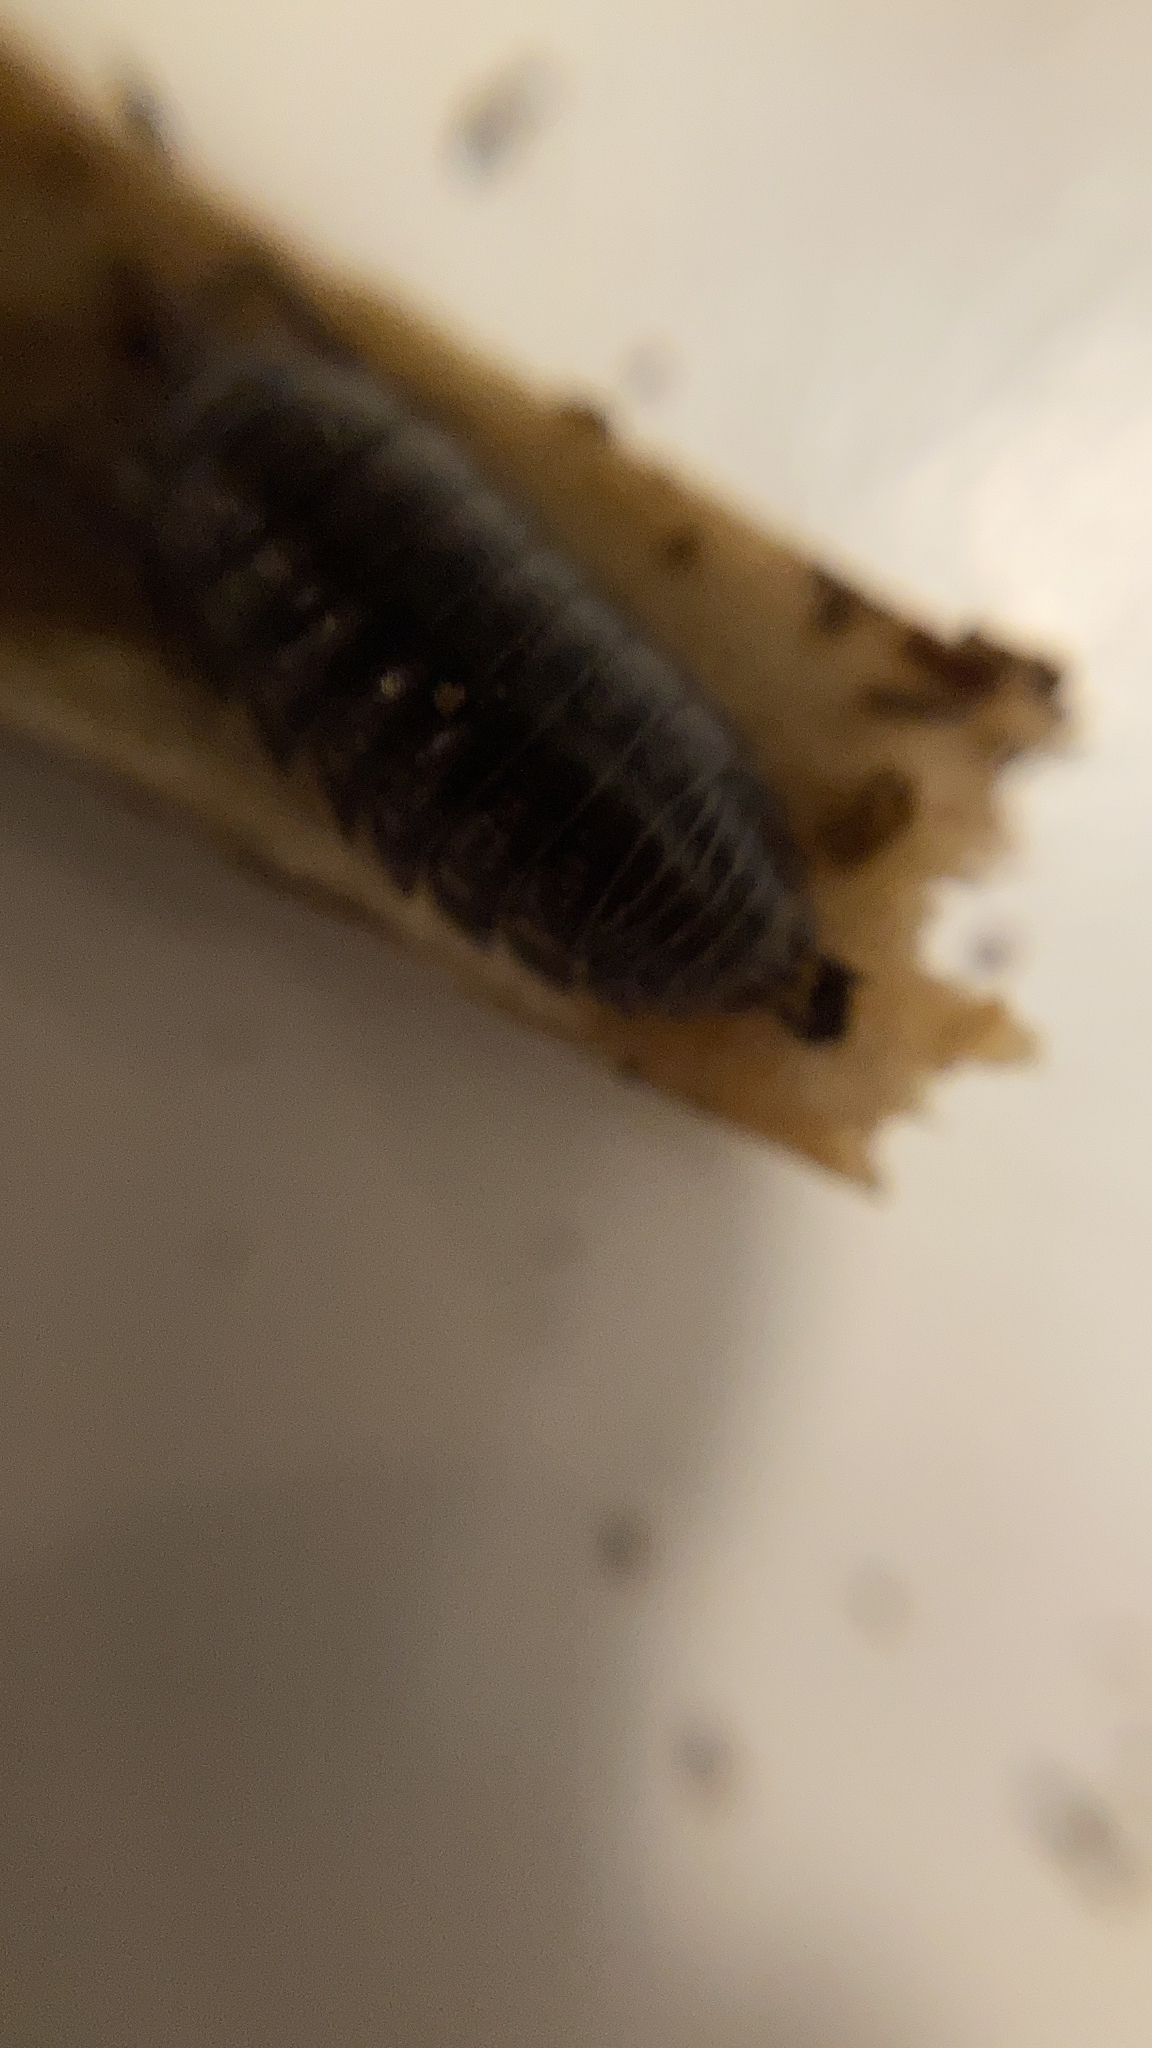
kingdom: Animalia
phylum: Arthropoda
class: Malacostraca
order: Isopoda
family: Cylisticidae
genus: Cylisticus
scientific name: Cylisticus convexus
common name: Curly woodlouse
